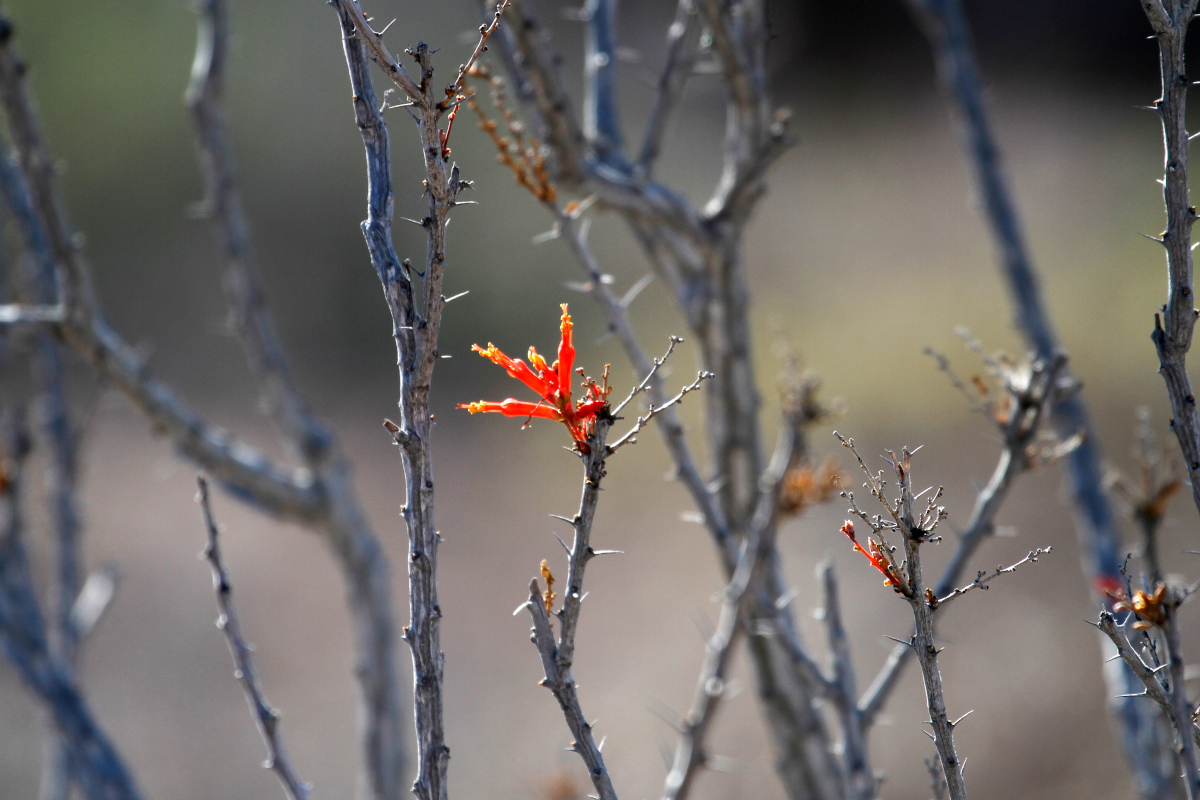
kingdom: Plantae
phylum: Tracheophyta
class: Magnoliopsida
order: Ericales
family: Fouquieriaceae
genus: Fouquieria
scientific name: Fouquieria diguetii
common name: Adam's tree
